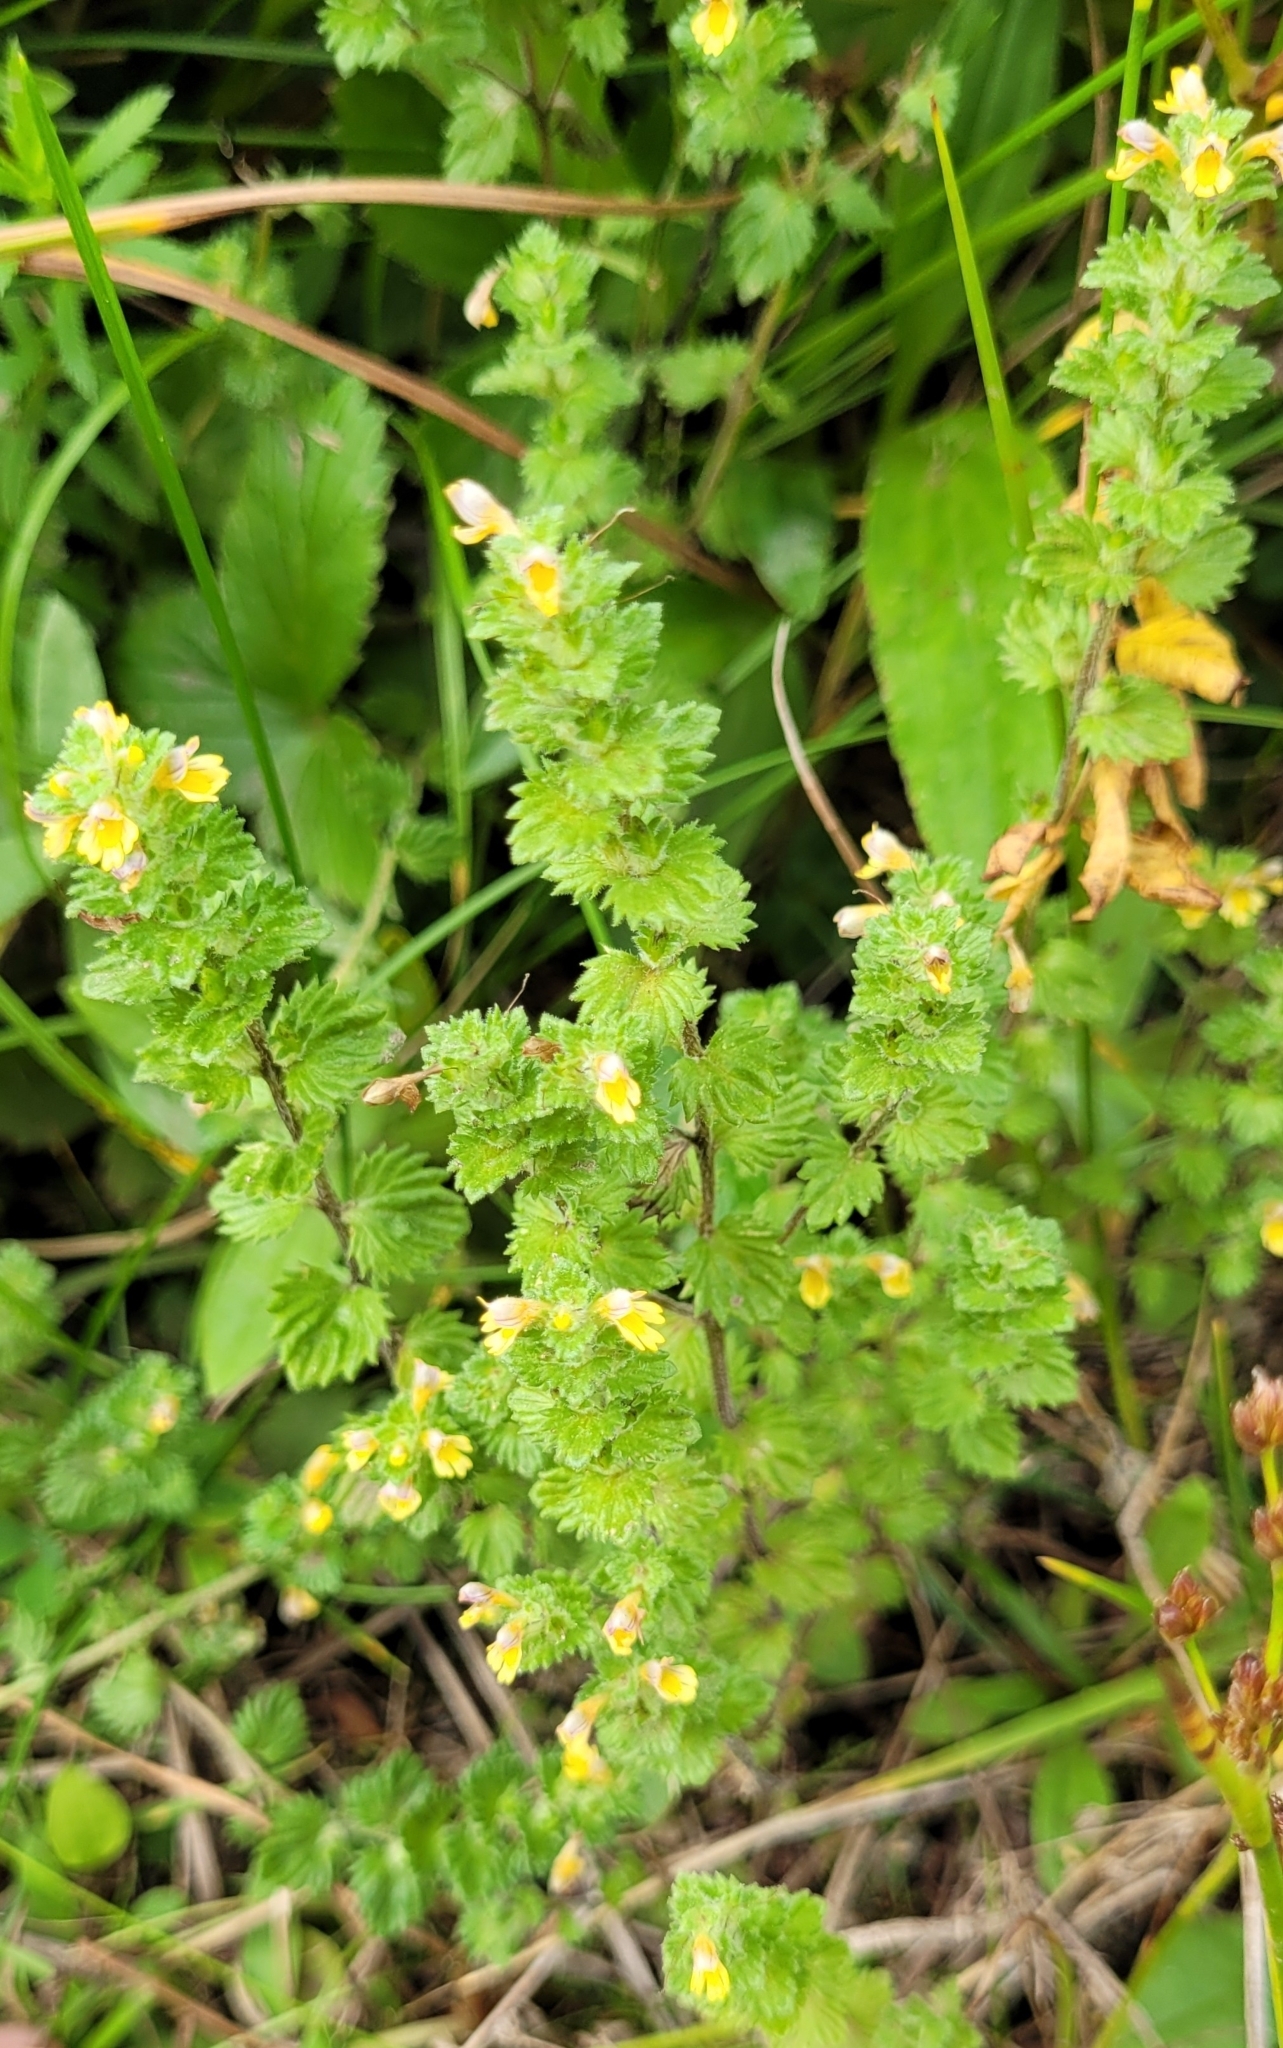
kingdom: Plantae
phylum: Tracheophyta
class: Magnoliopsida
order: Lamiales
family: Orobanchaceae
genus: Euphrasia
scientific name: Euphrasia mollis
